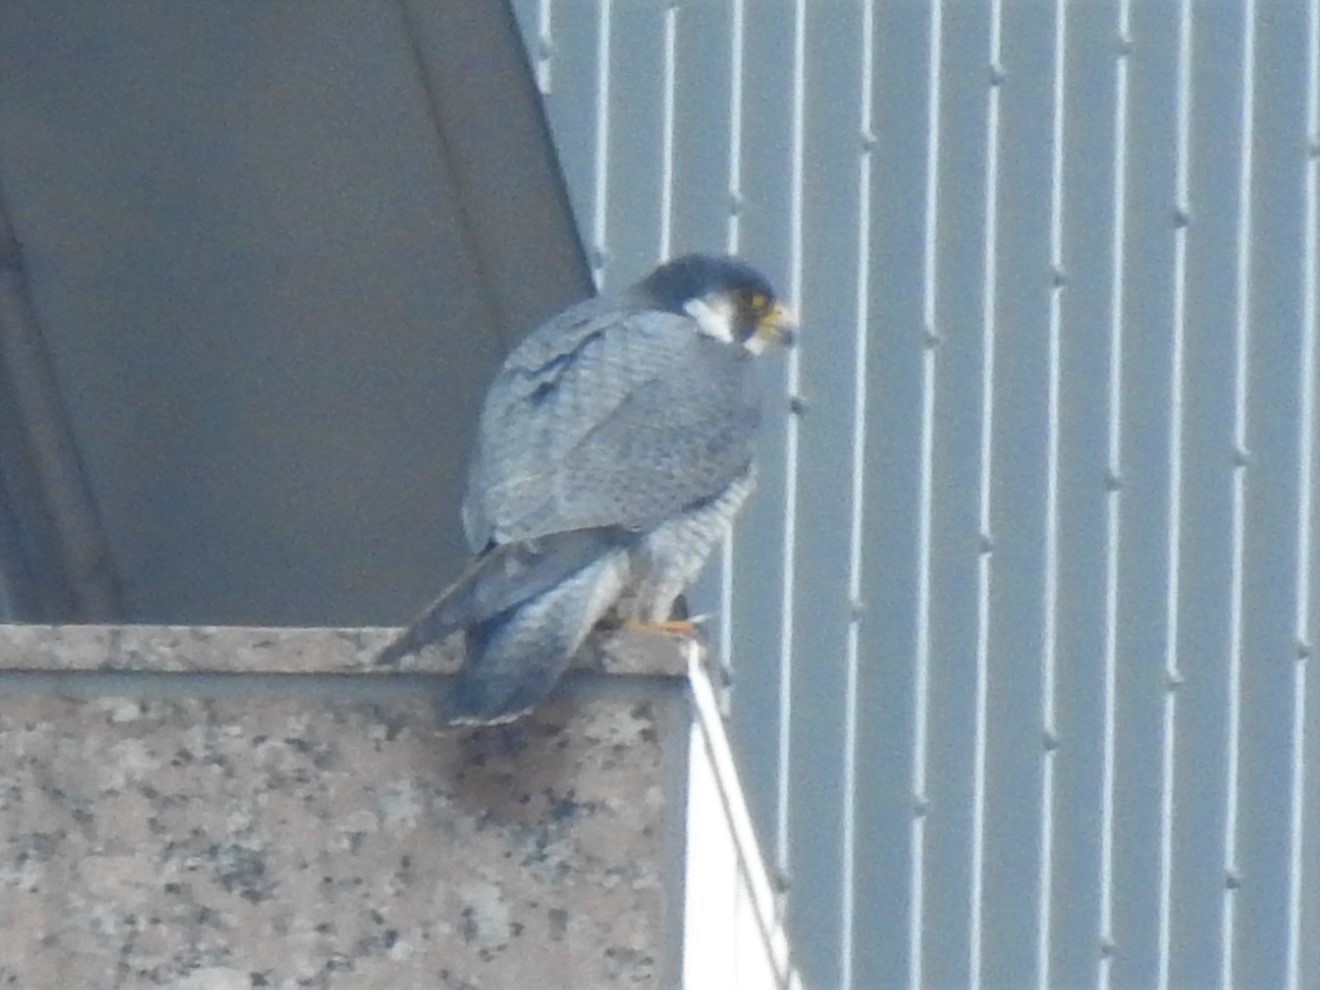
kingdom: Animalia
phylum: Chordata
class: Aves
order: Falconiformes
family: Falconidae
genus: Falco
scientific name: Falco peregrinus
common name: Peregrine falcon
